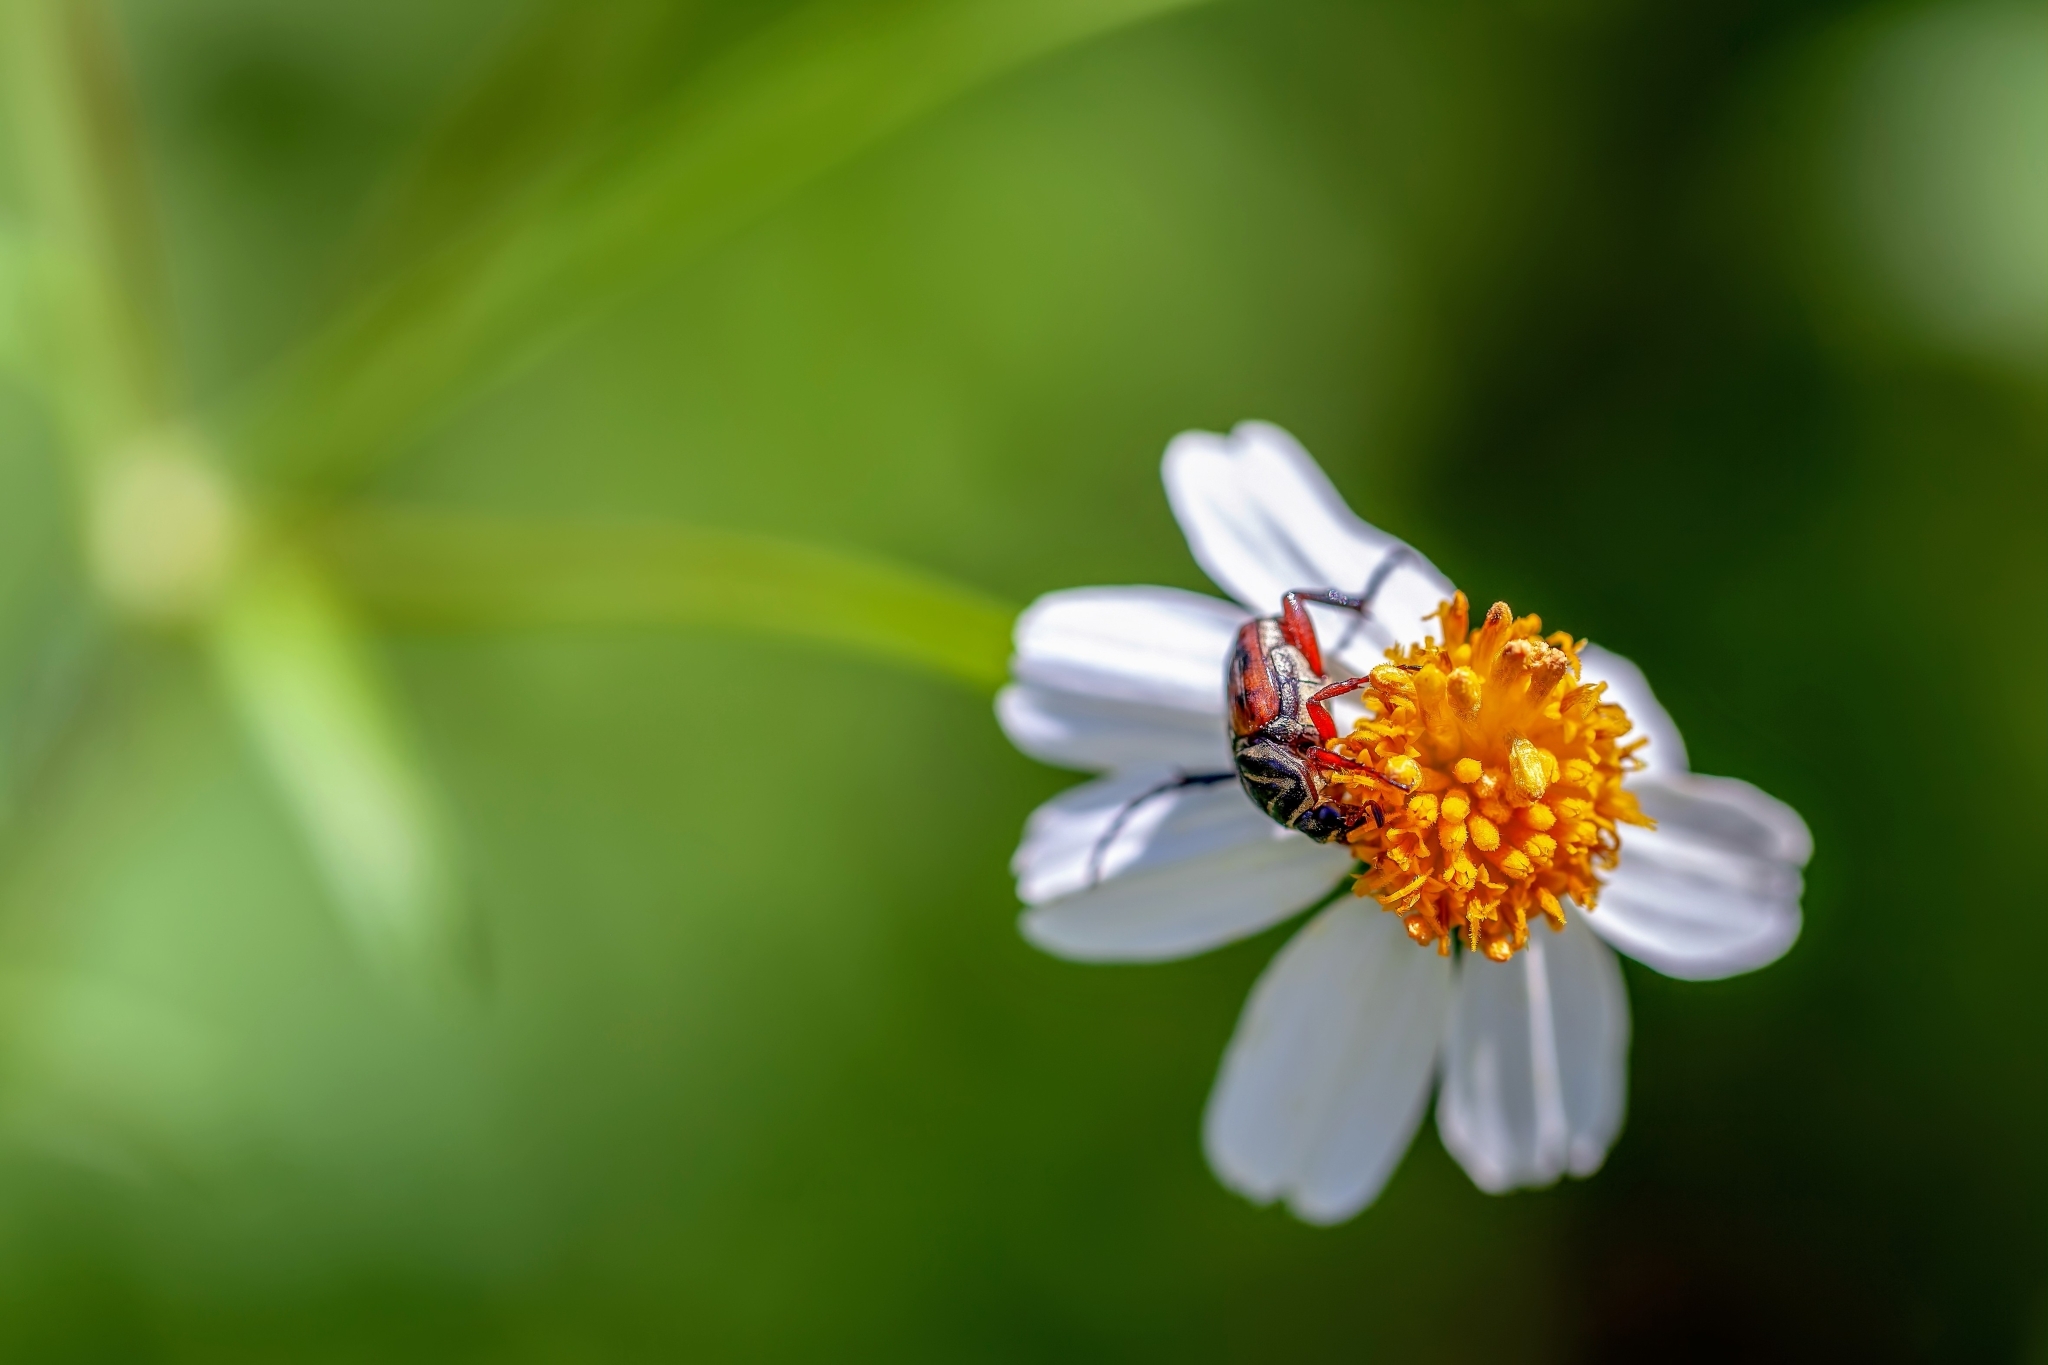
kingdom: Animalia
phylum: Arthropoda
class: Insecta
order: Coleoptera
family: Scarabaeidae
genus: Trigonopeltastes
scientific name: Trigonopeltastes delta
